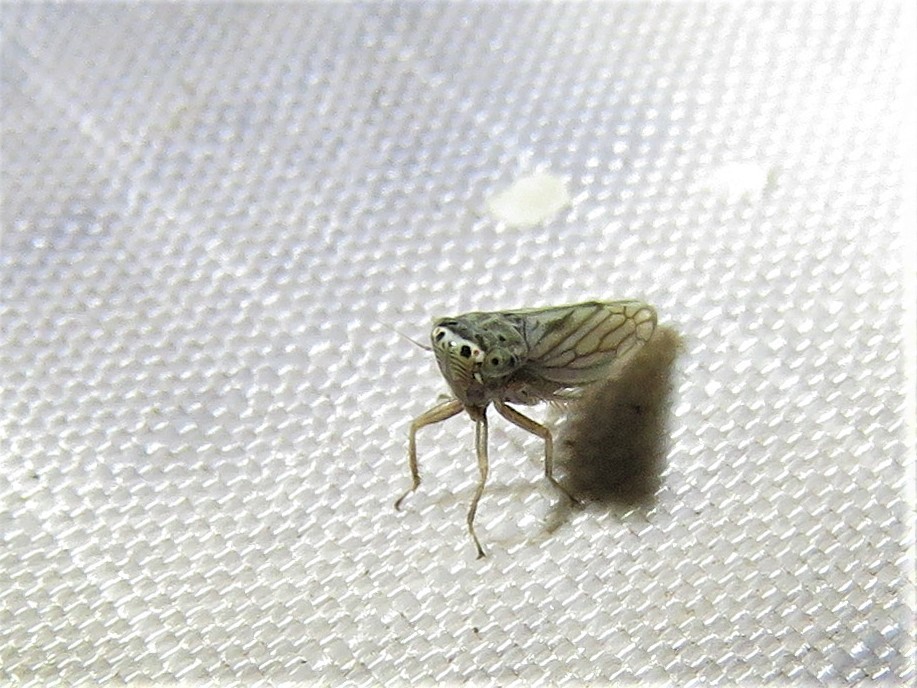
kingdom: Animalia
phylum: Arthropoda
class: Insecta
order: Hemiptera
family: Cicadellidae
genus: Exitianus
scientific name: Exitianus exitiosus
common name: Gray lawn leafhopper
